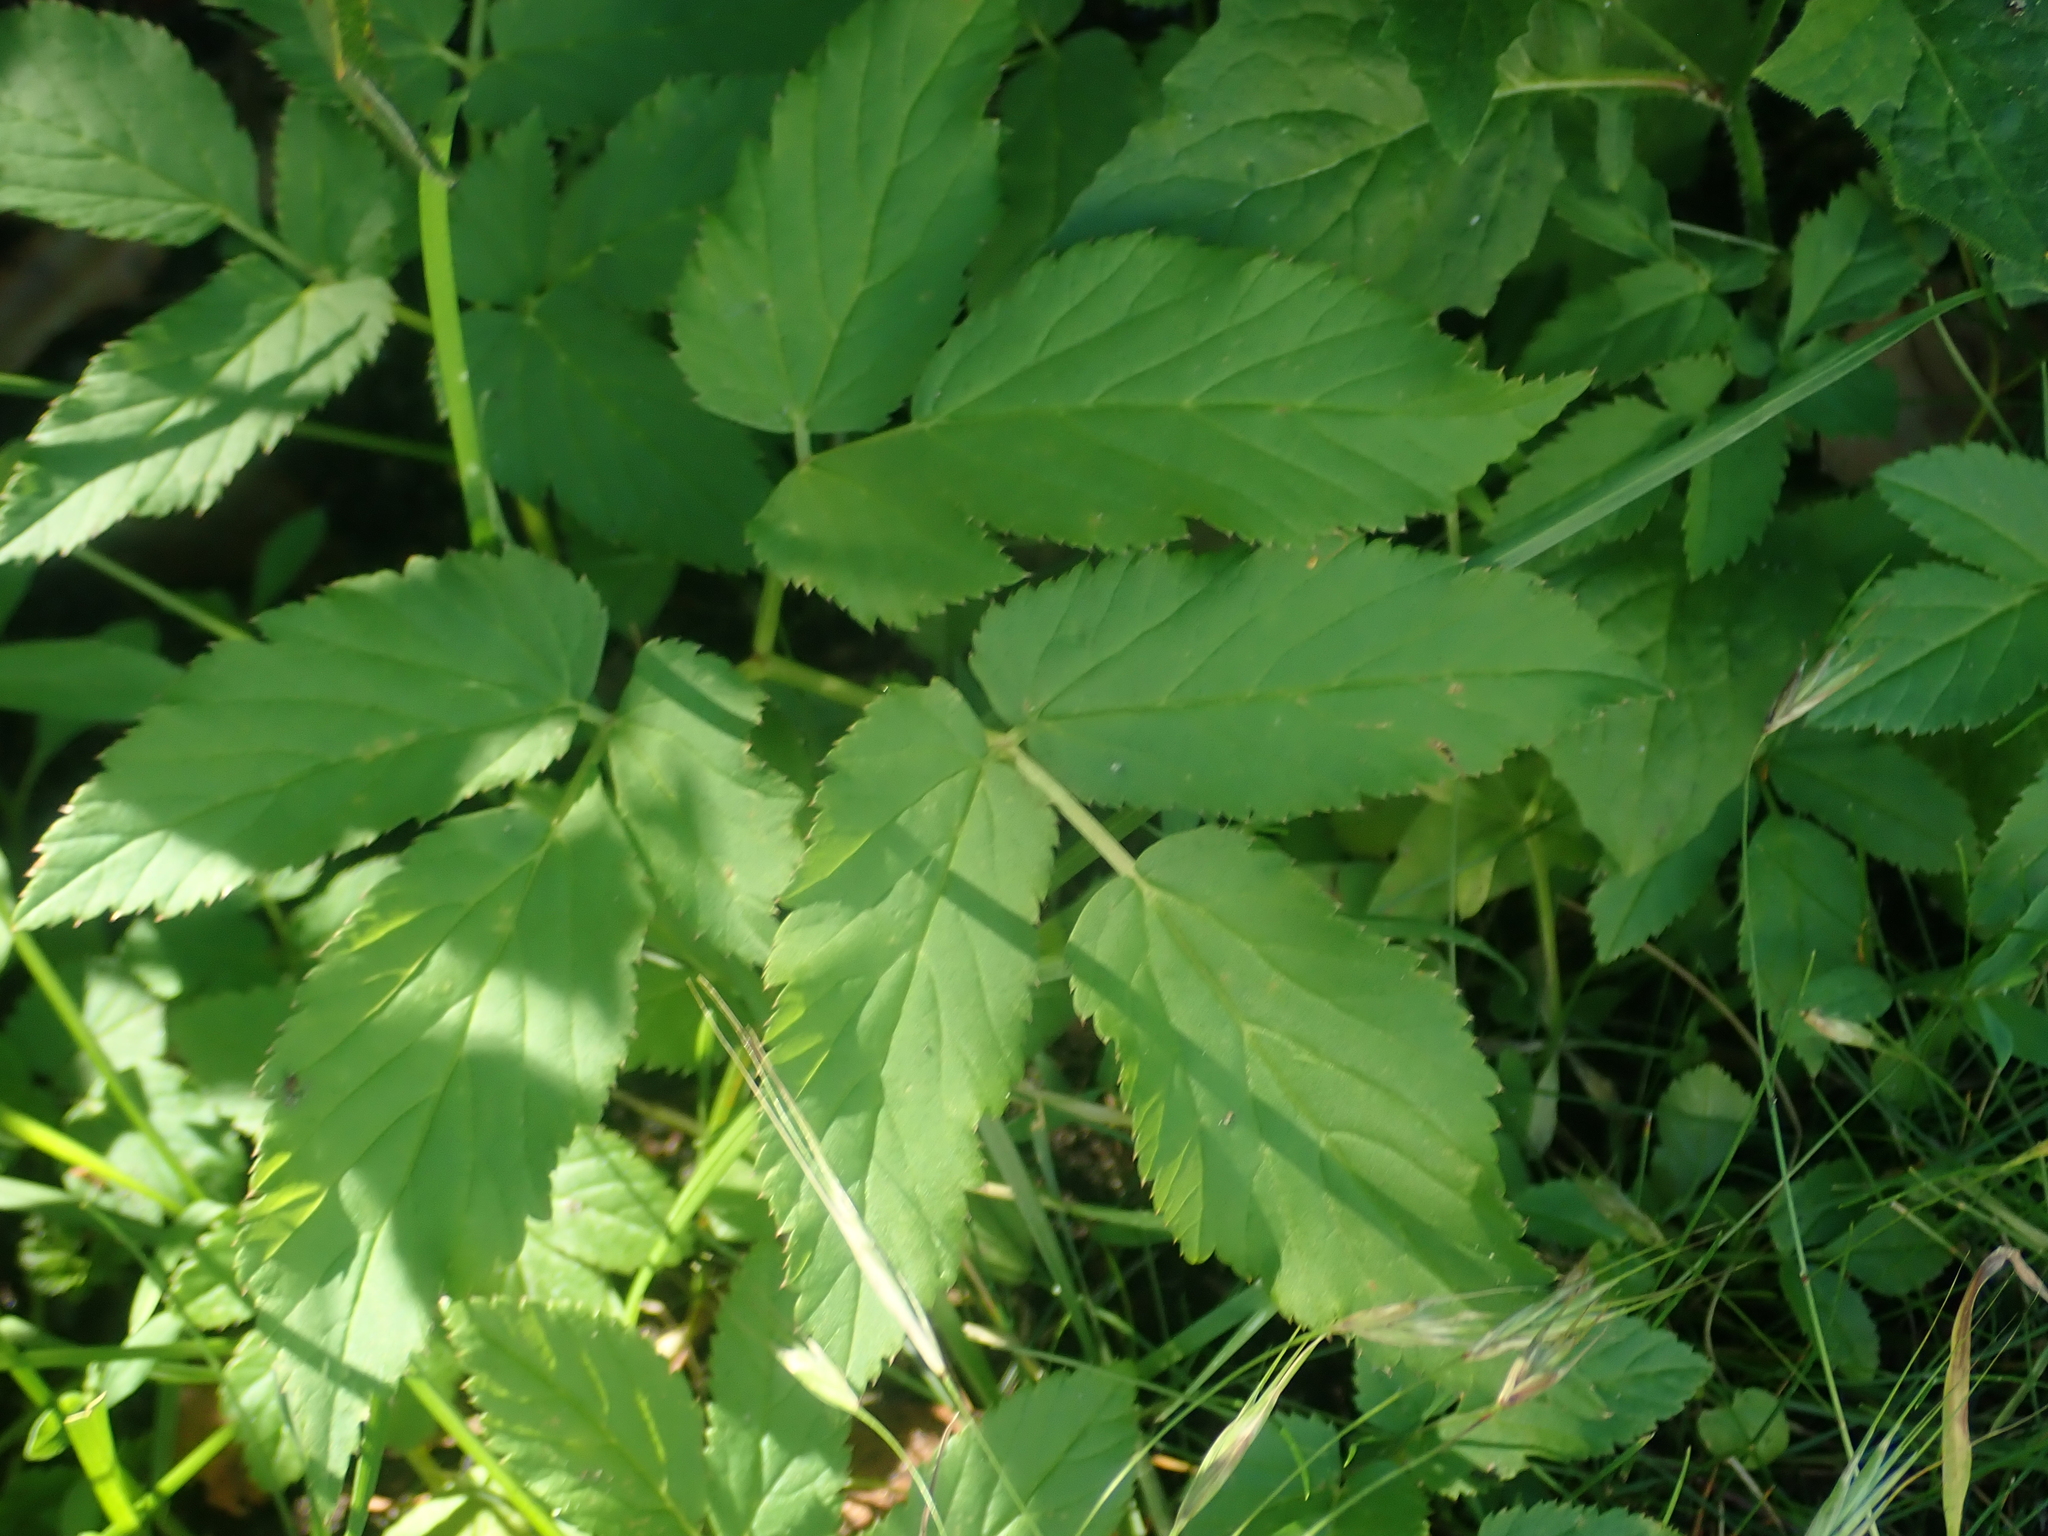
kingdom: Plantae
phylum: Tracheophyta
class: Magnoliopsida
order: Apiales
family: Apiaceae
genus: Aegopodium
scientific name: Aegopodium podagraria
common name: Ground-elder
